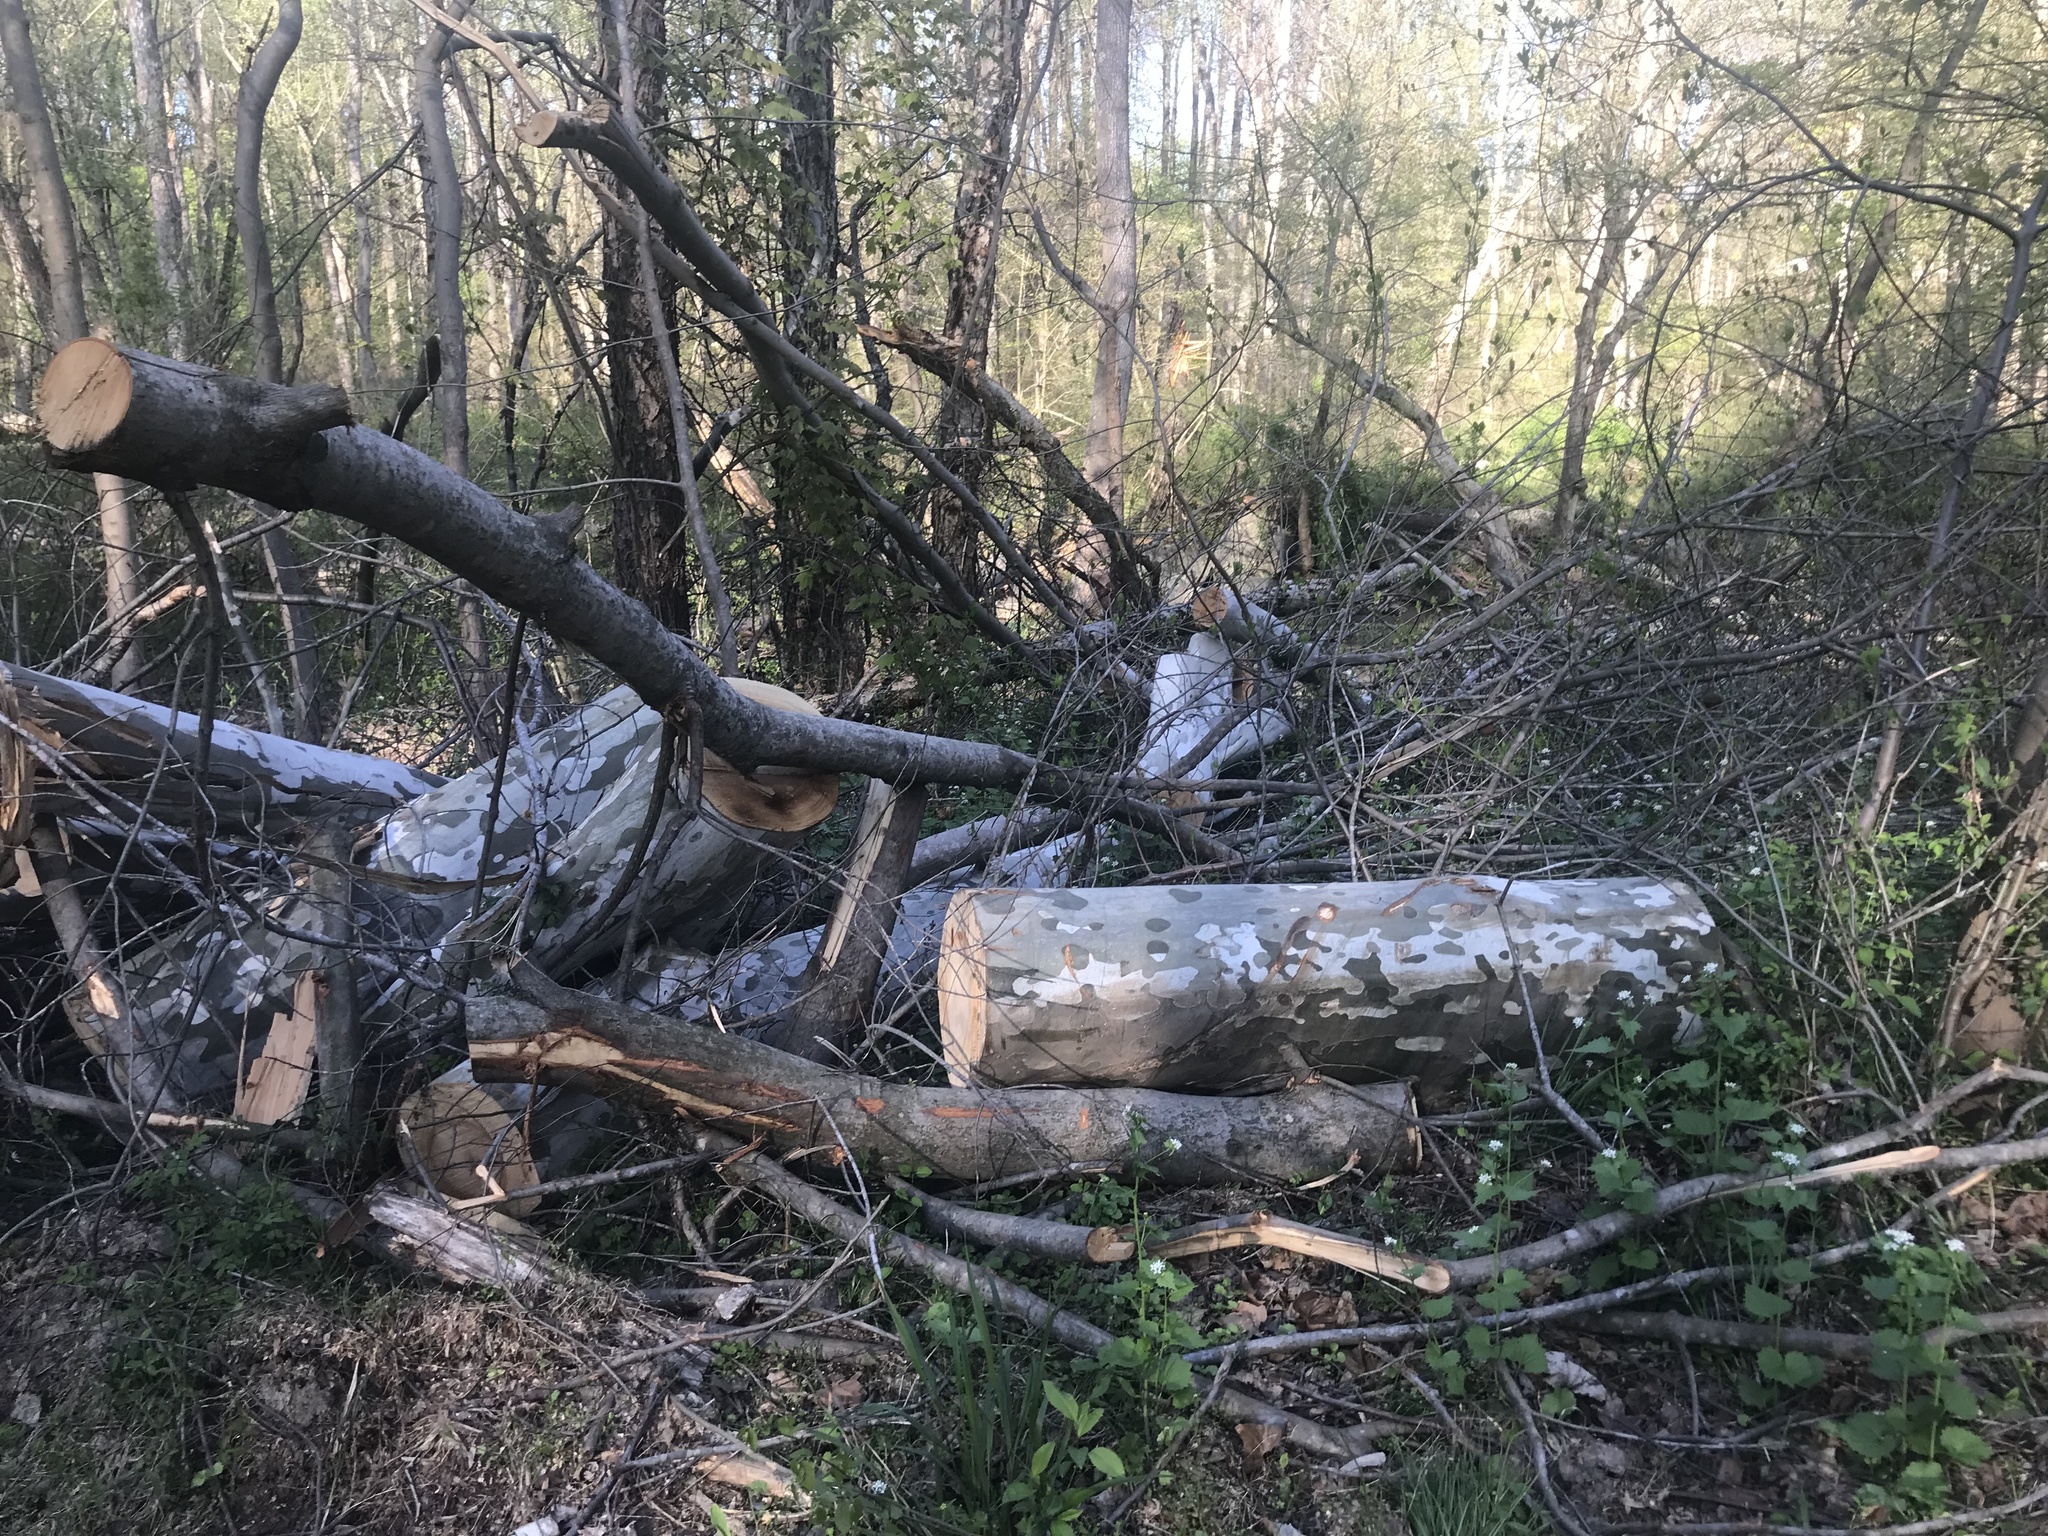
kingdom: Plantae
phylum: Tracheophyta
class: Magnoliopsida
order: Proteales
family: Platanaceae
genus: Platanus
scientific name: Platanus occidentalis
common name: American sycamore
